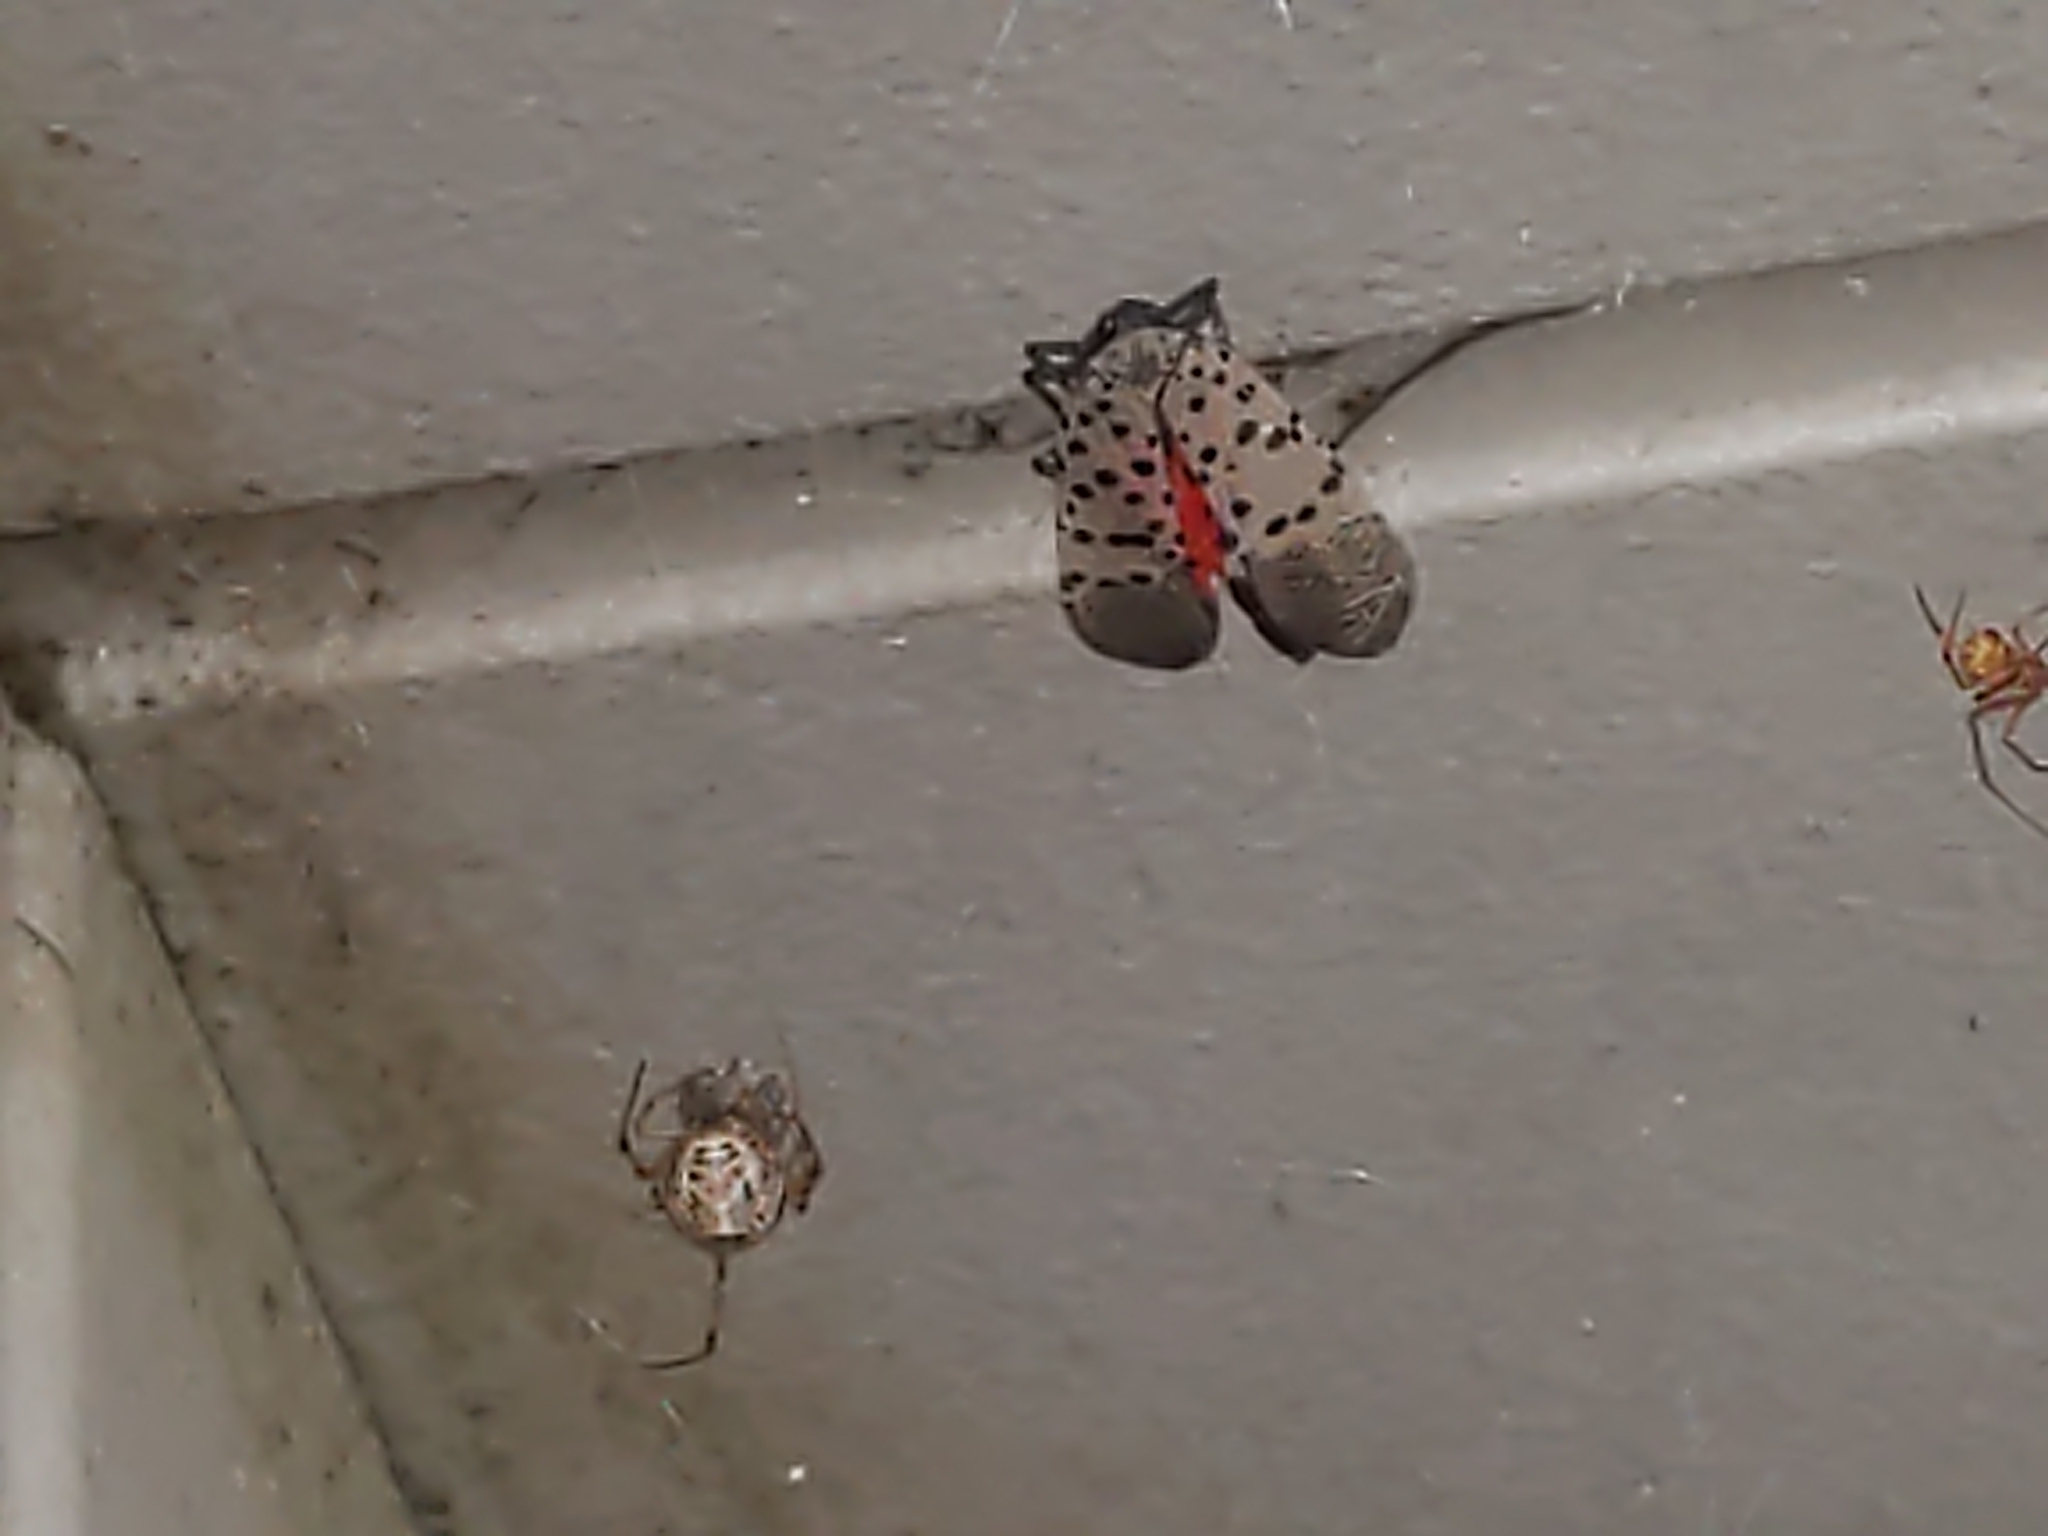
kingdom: Animalia
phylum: Arthropoda
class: Insecta
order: Hemiptera
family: Fulgoridae
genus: Lycorma
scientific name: Lycorma delicatula
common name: Spotted lanternfly
